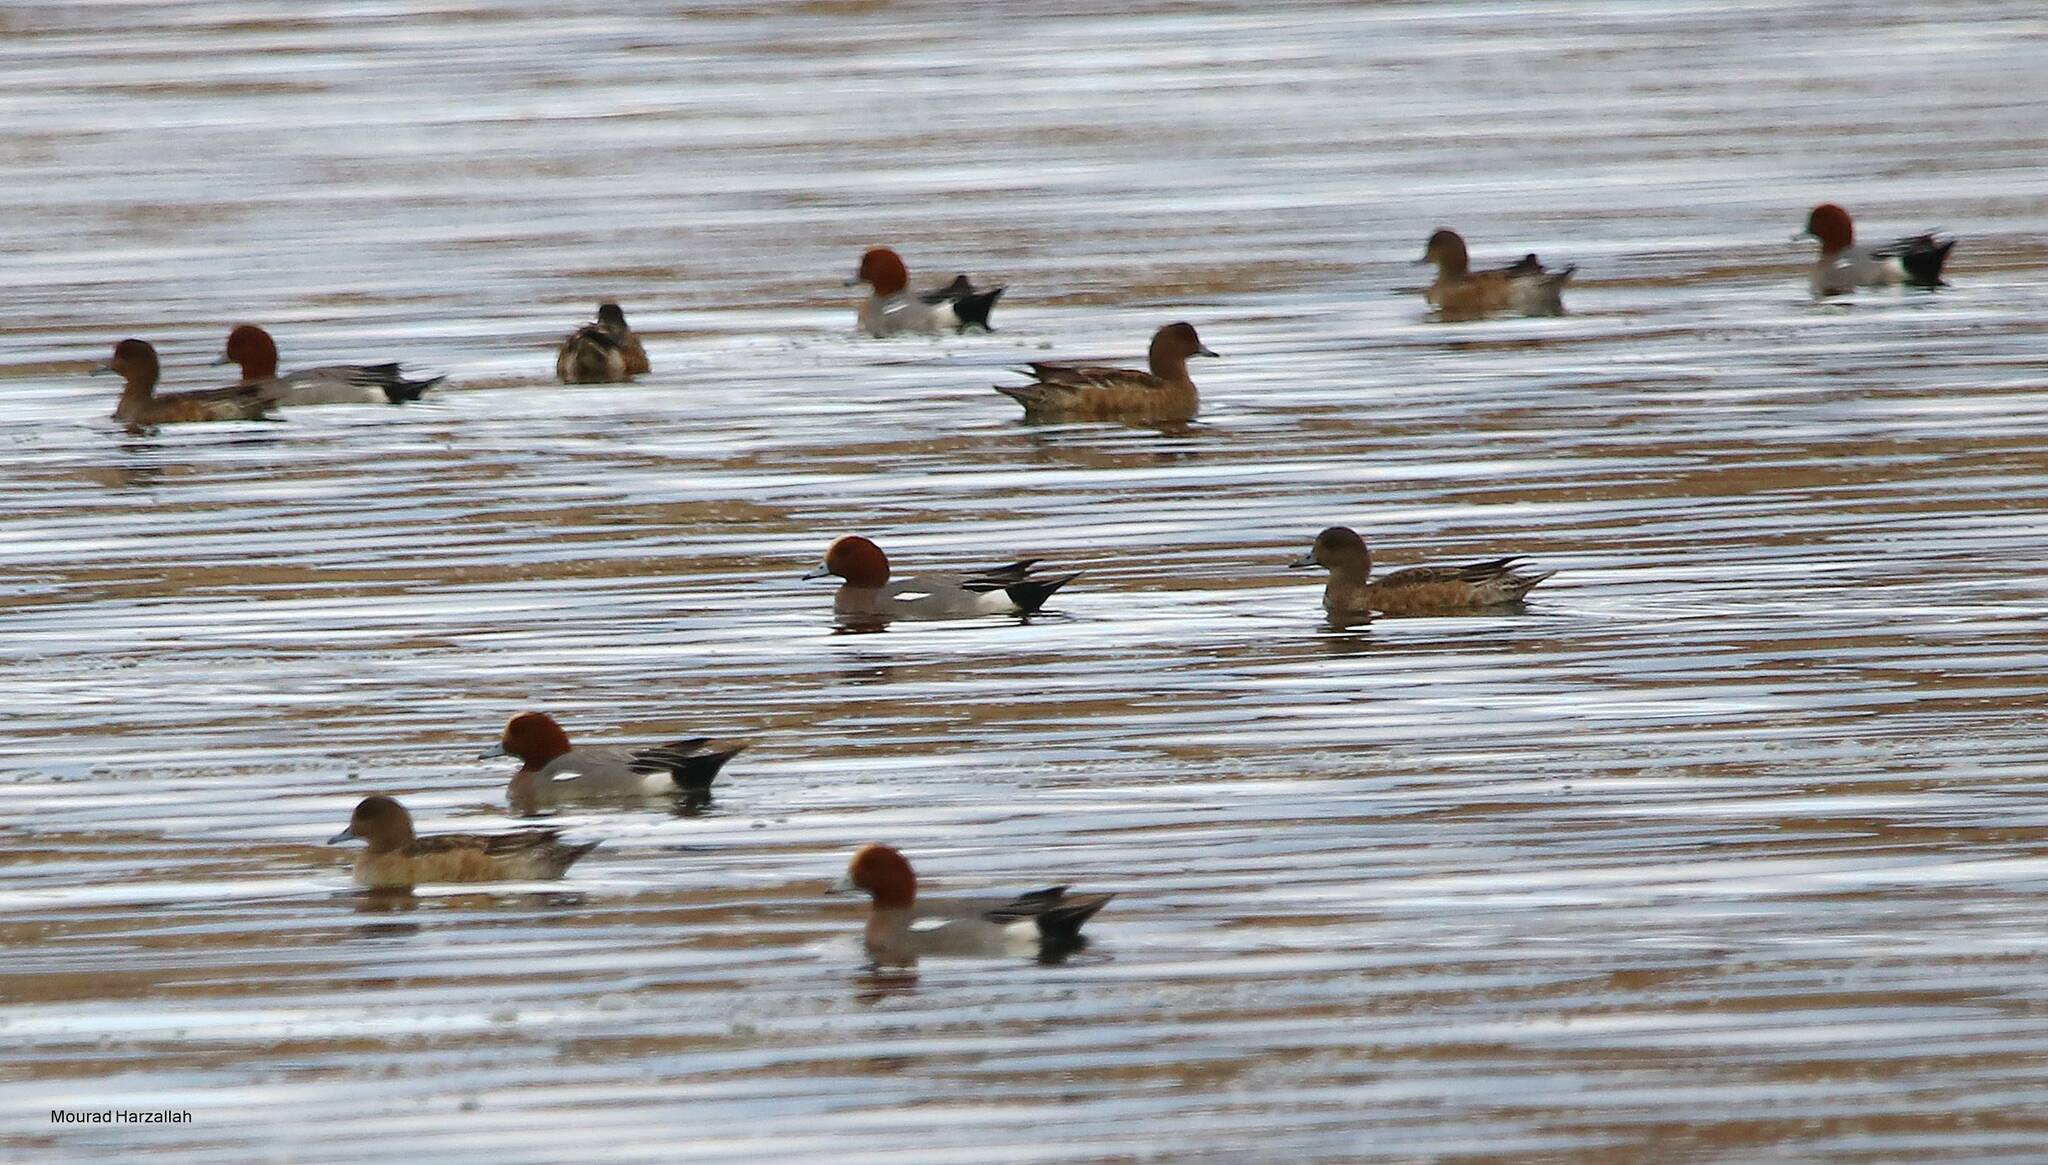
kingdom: Animalia
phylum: Chordata
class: Aves
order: Anseriformes
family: Anatidae
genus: Mareca
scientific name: Mareca penelope
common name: Eurasian wigeon
